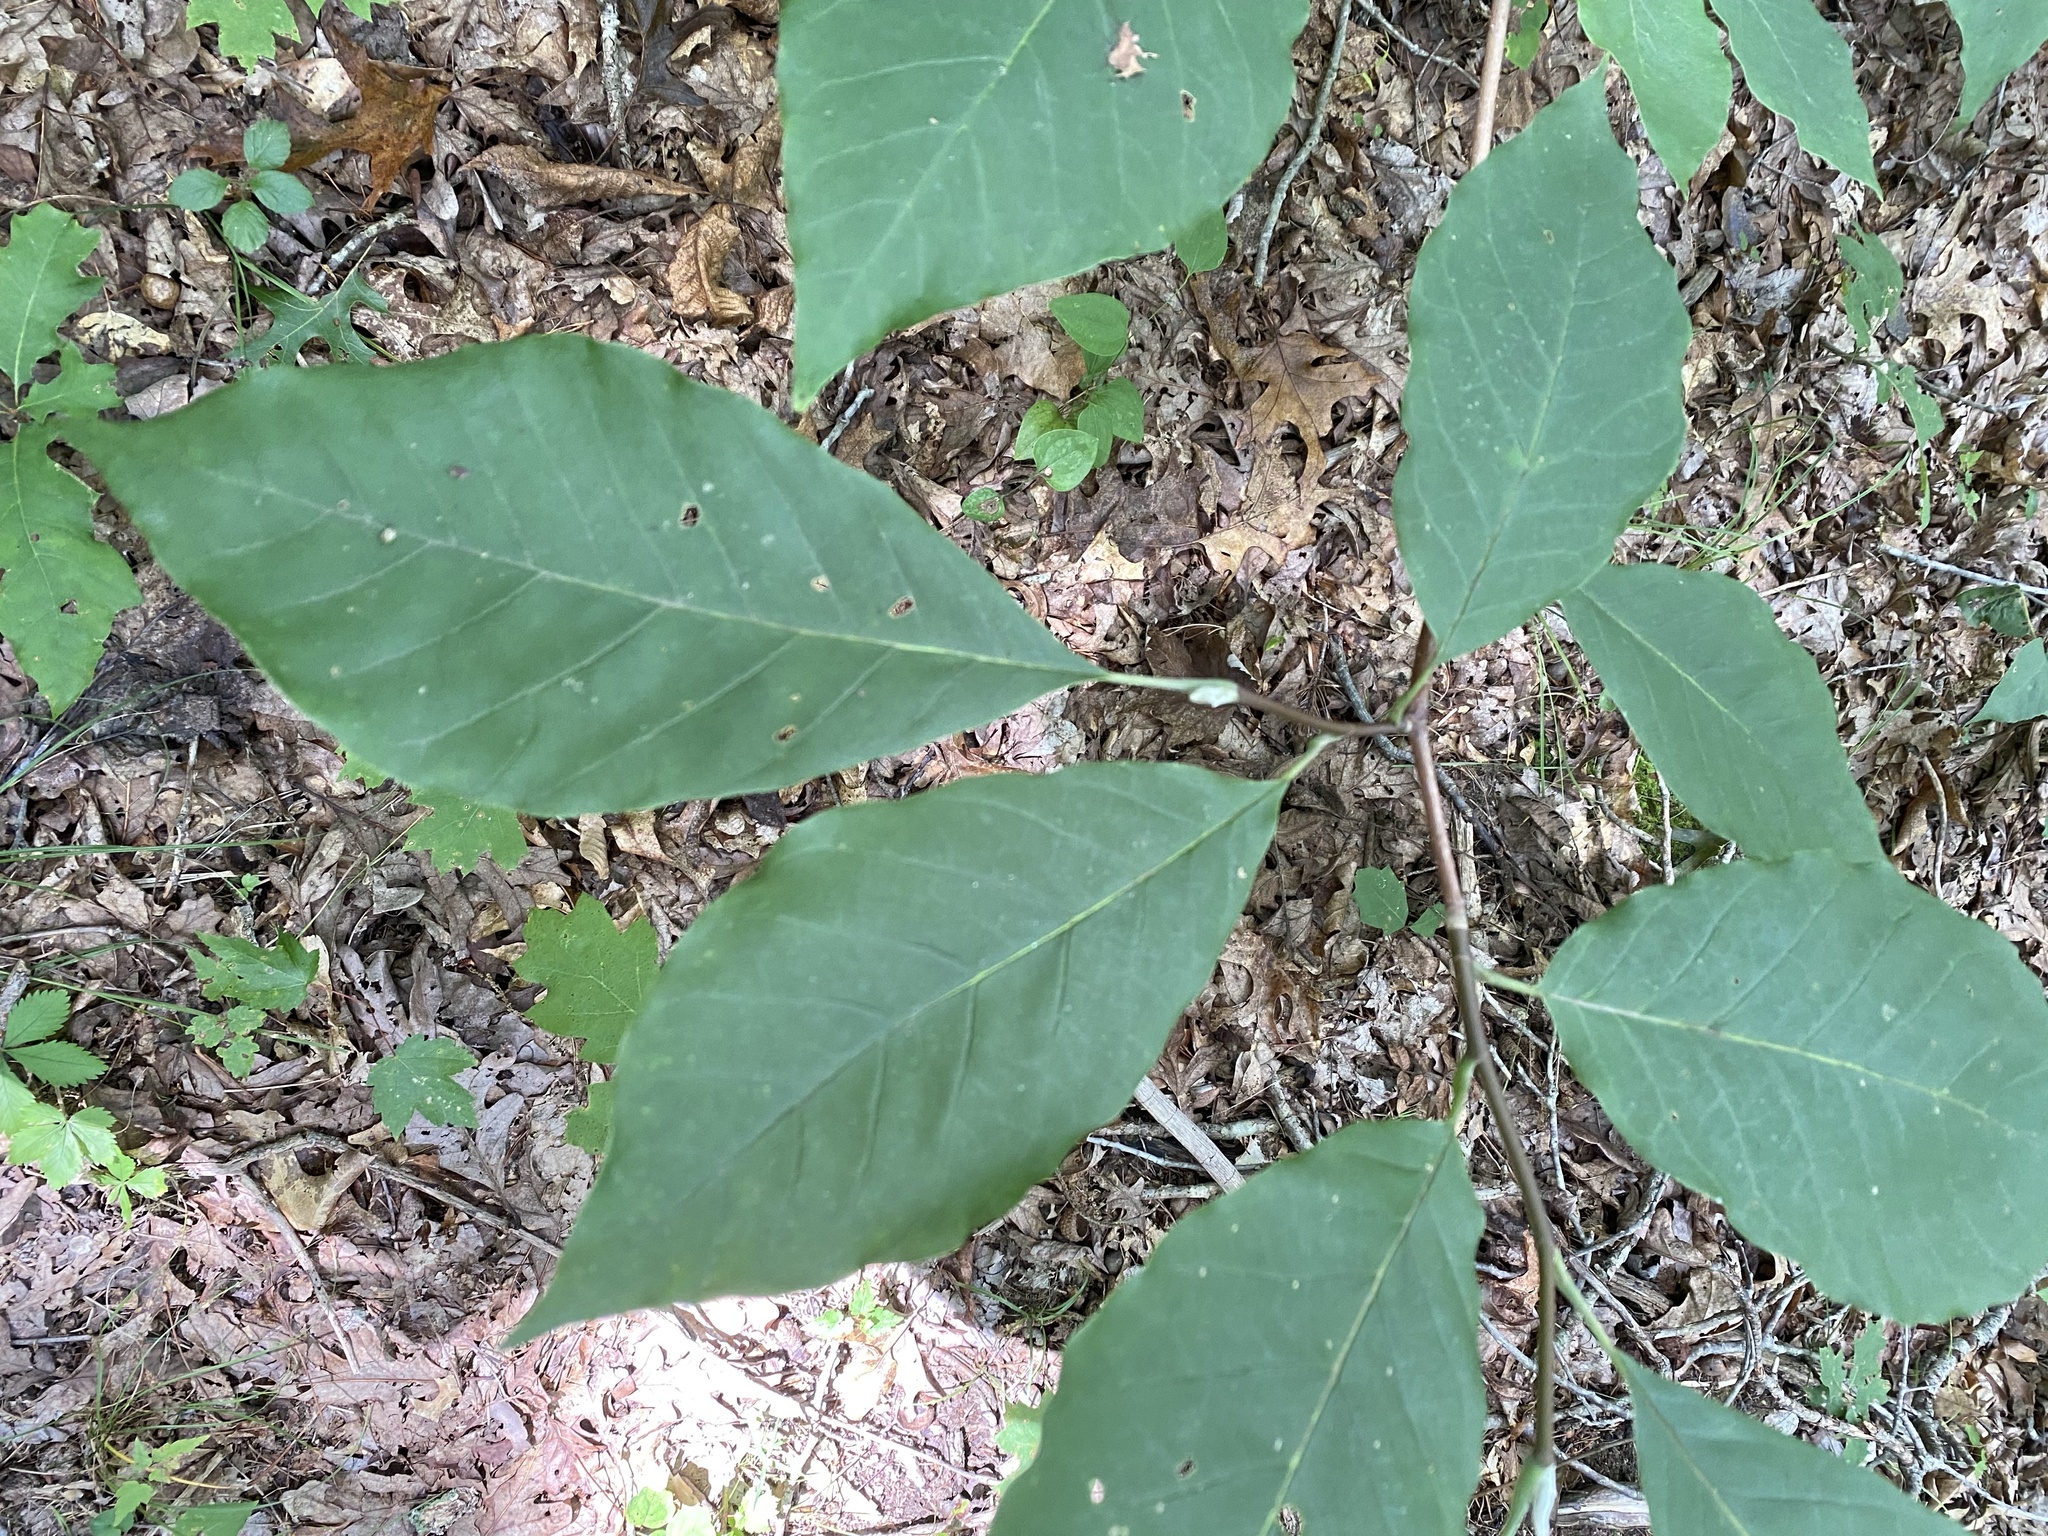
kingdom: Plantae
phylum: Tracheophyta
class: Magnoliopsida
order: Magnoliales
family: Magnoliaceae
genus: Magnolia
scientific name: Magnolia acuminata
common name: Cucumber magnolia
